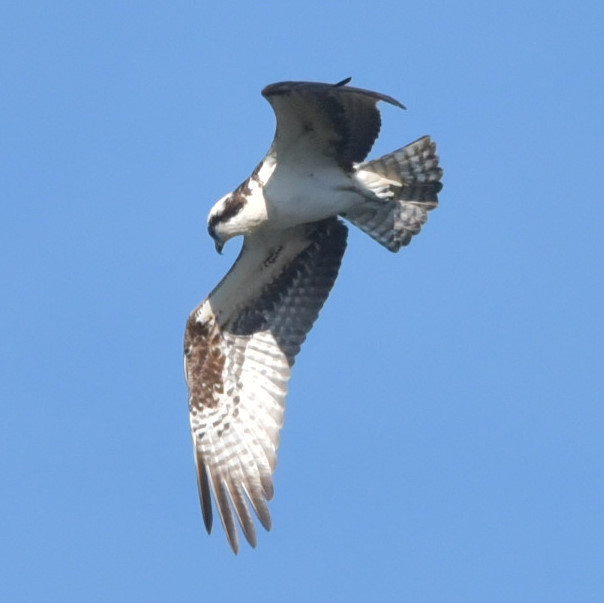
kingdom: Animalia
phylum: Chordata
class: Aves
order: Accipitriformes
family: Pandionidae
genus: Pandion
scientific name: Pandion haliaetus
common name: Osprey
